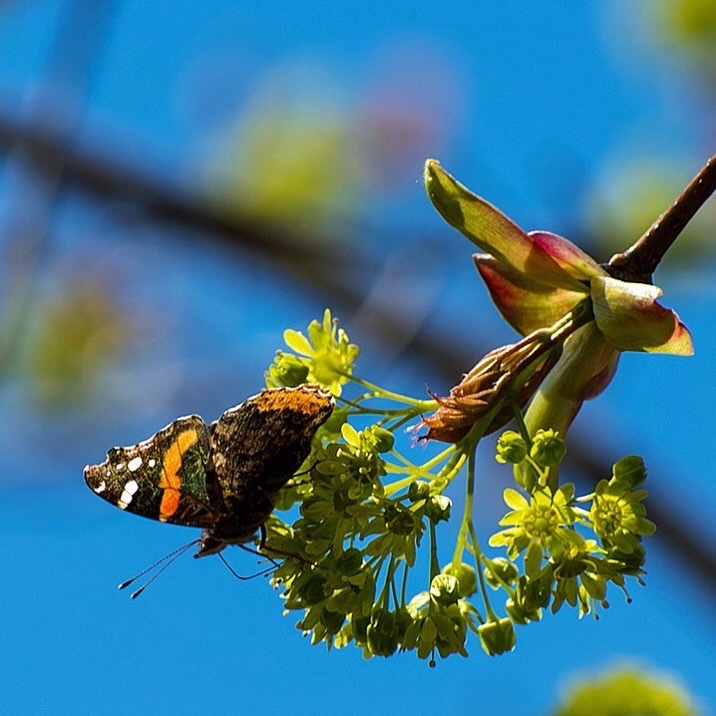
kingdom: Animalia
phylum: Arthropoda
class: Insecta
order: Lepidoptera
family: Nymphalidae
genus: Vanessa
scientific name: Vanessa atalanta
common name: Red admiral
